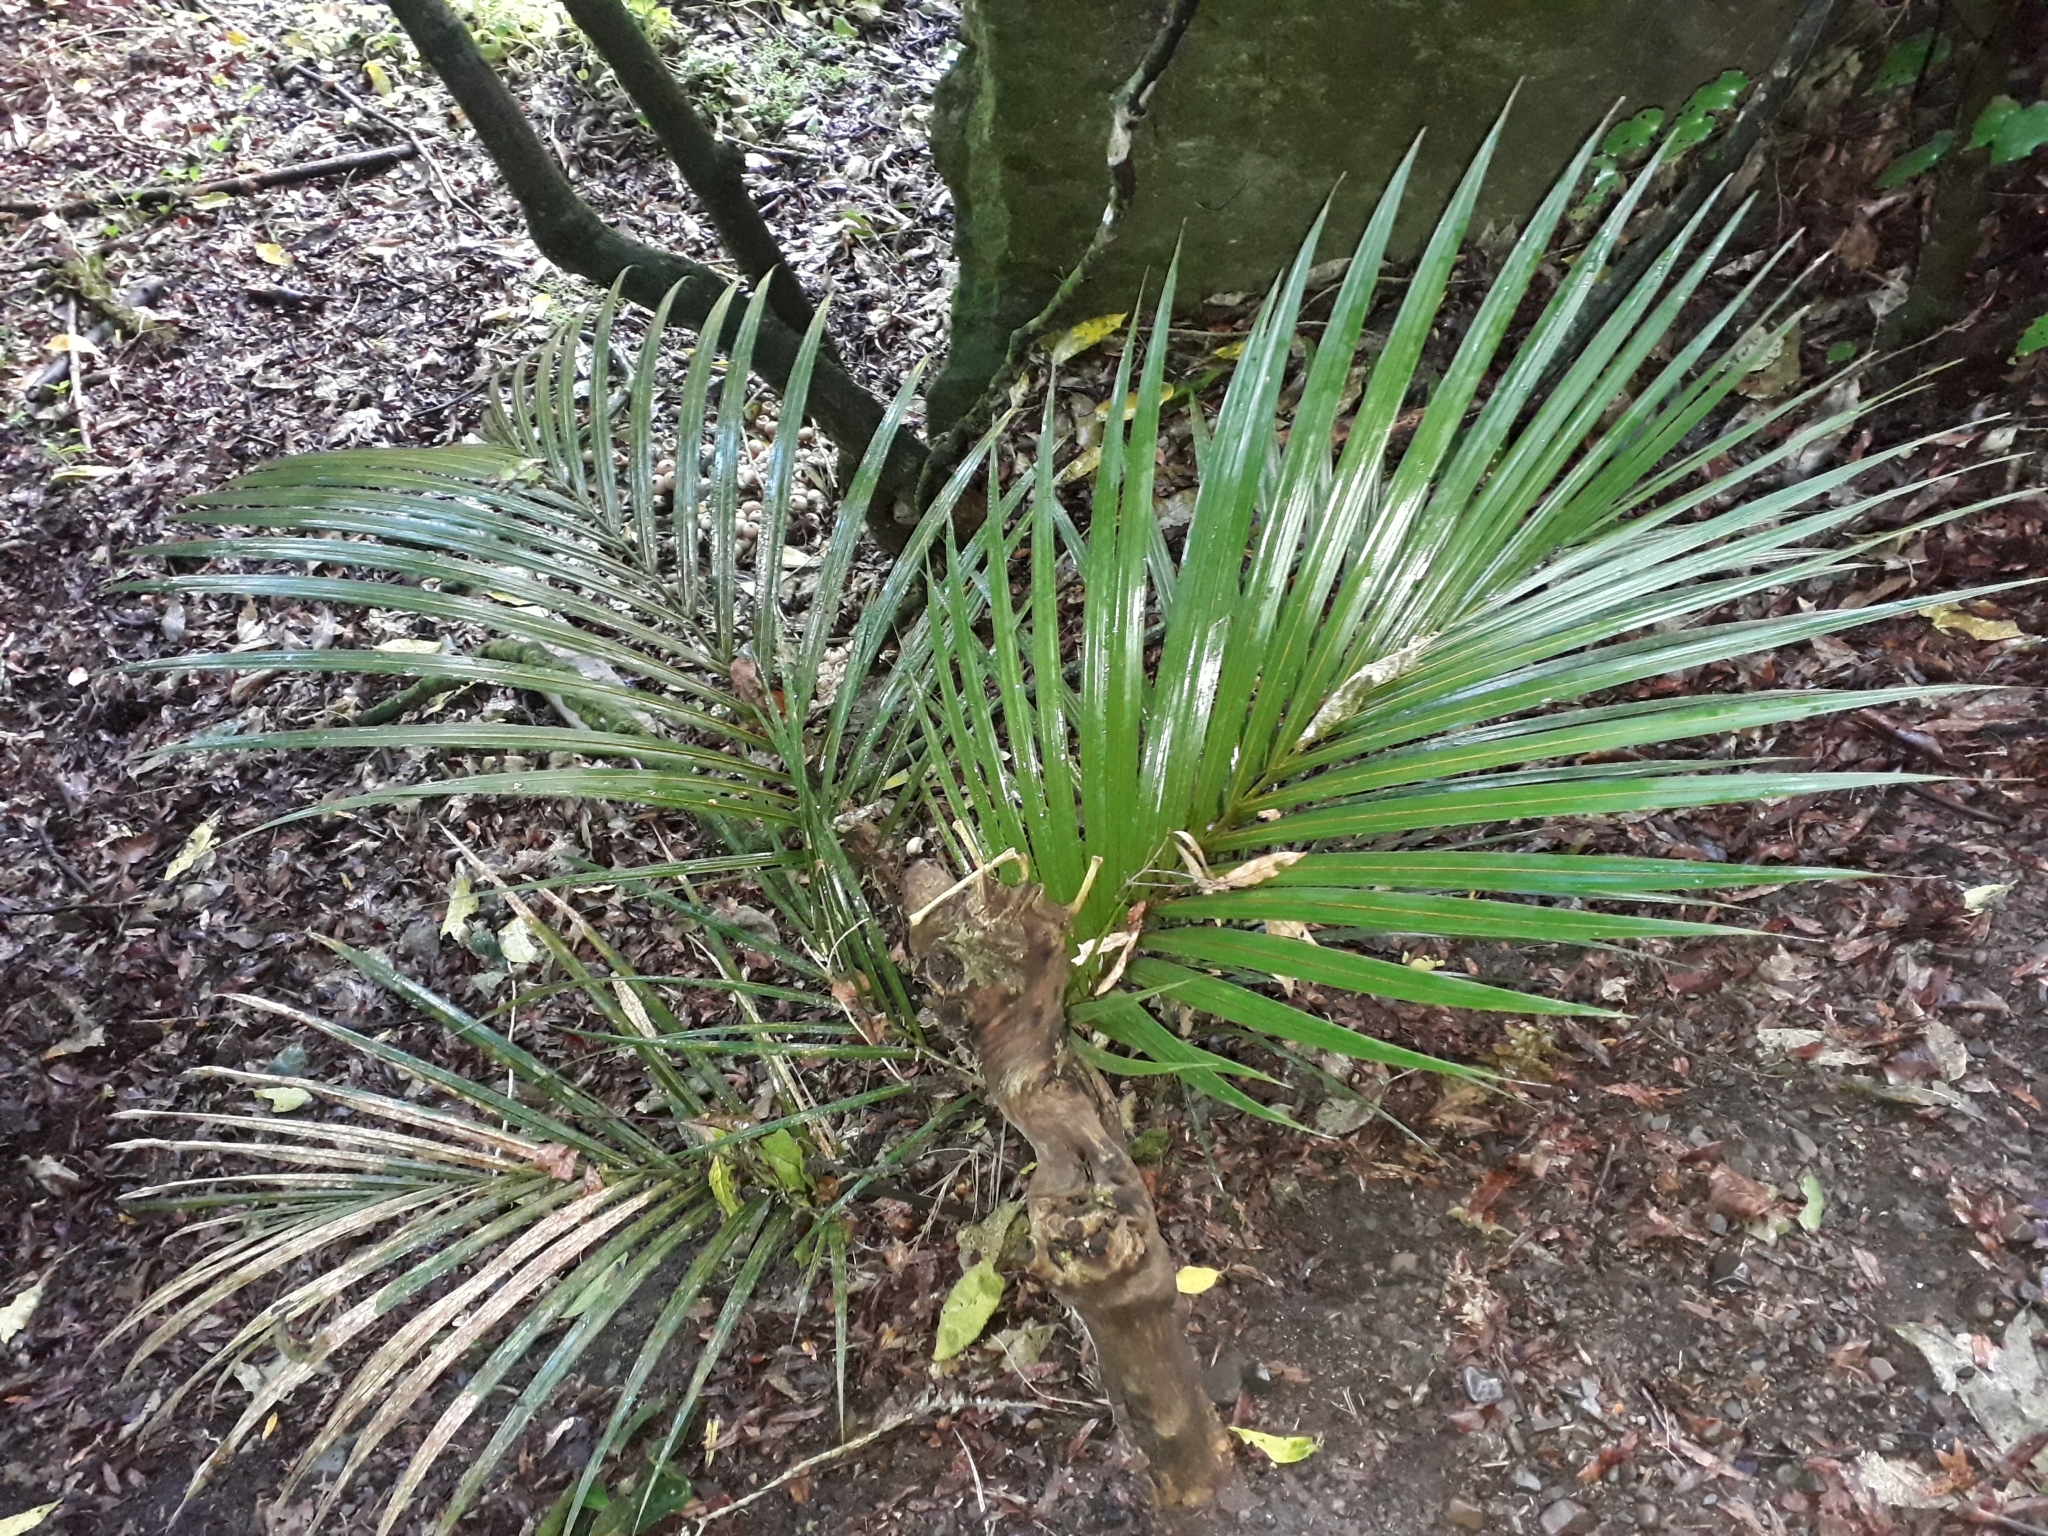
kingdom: Plantae
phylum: Tracheophyta
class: Liliopsida
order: Arecales
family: Arecaceae
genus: Rhopalostylis
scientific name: Rhopalostylis sapida
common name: Feather-duster palm
